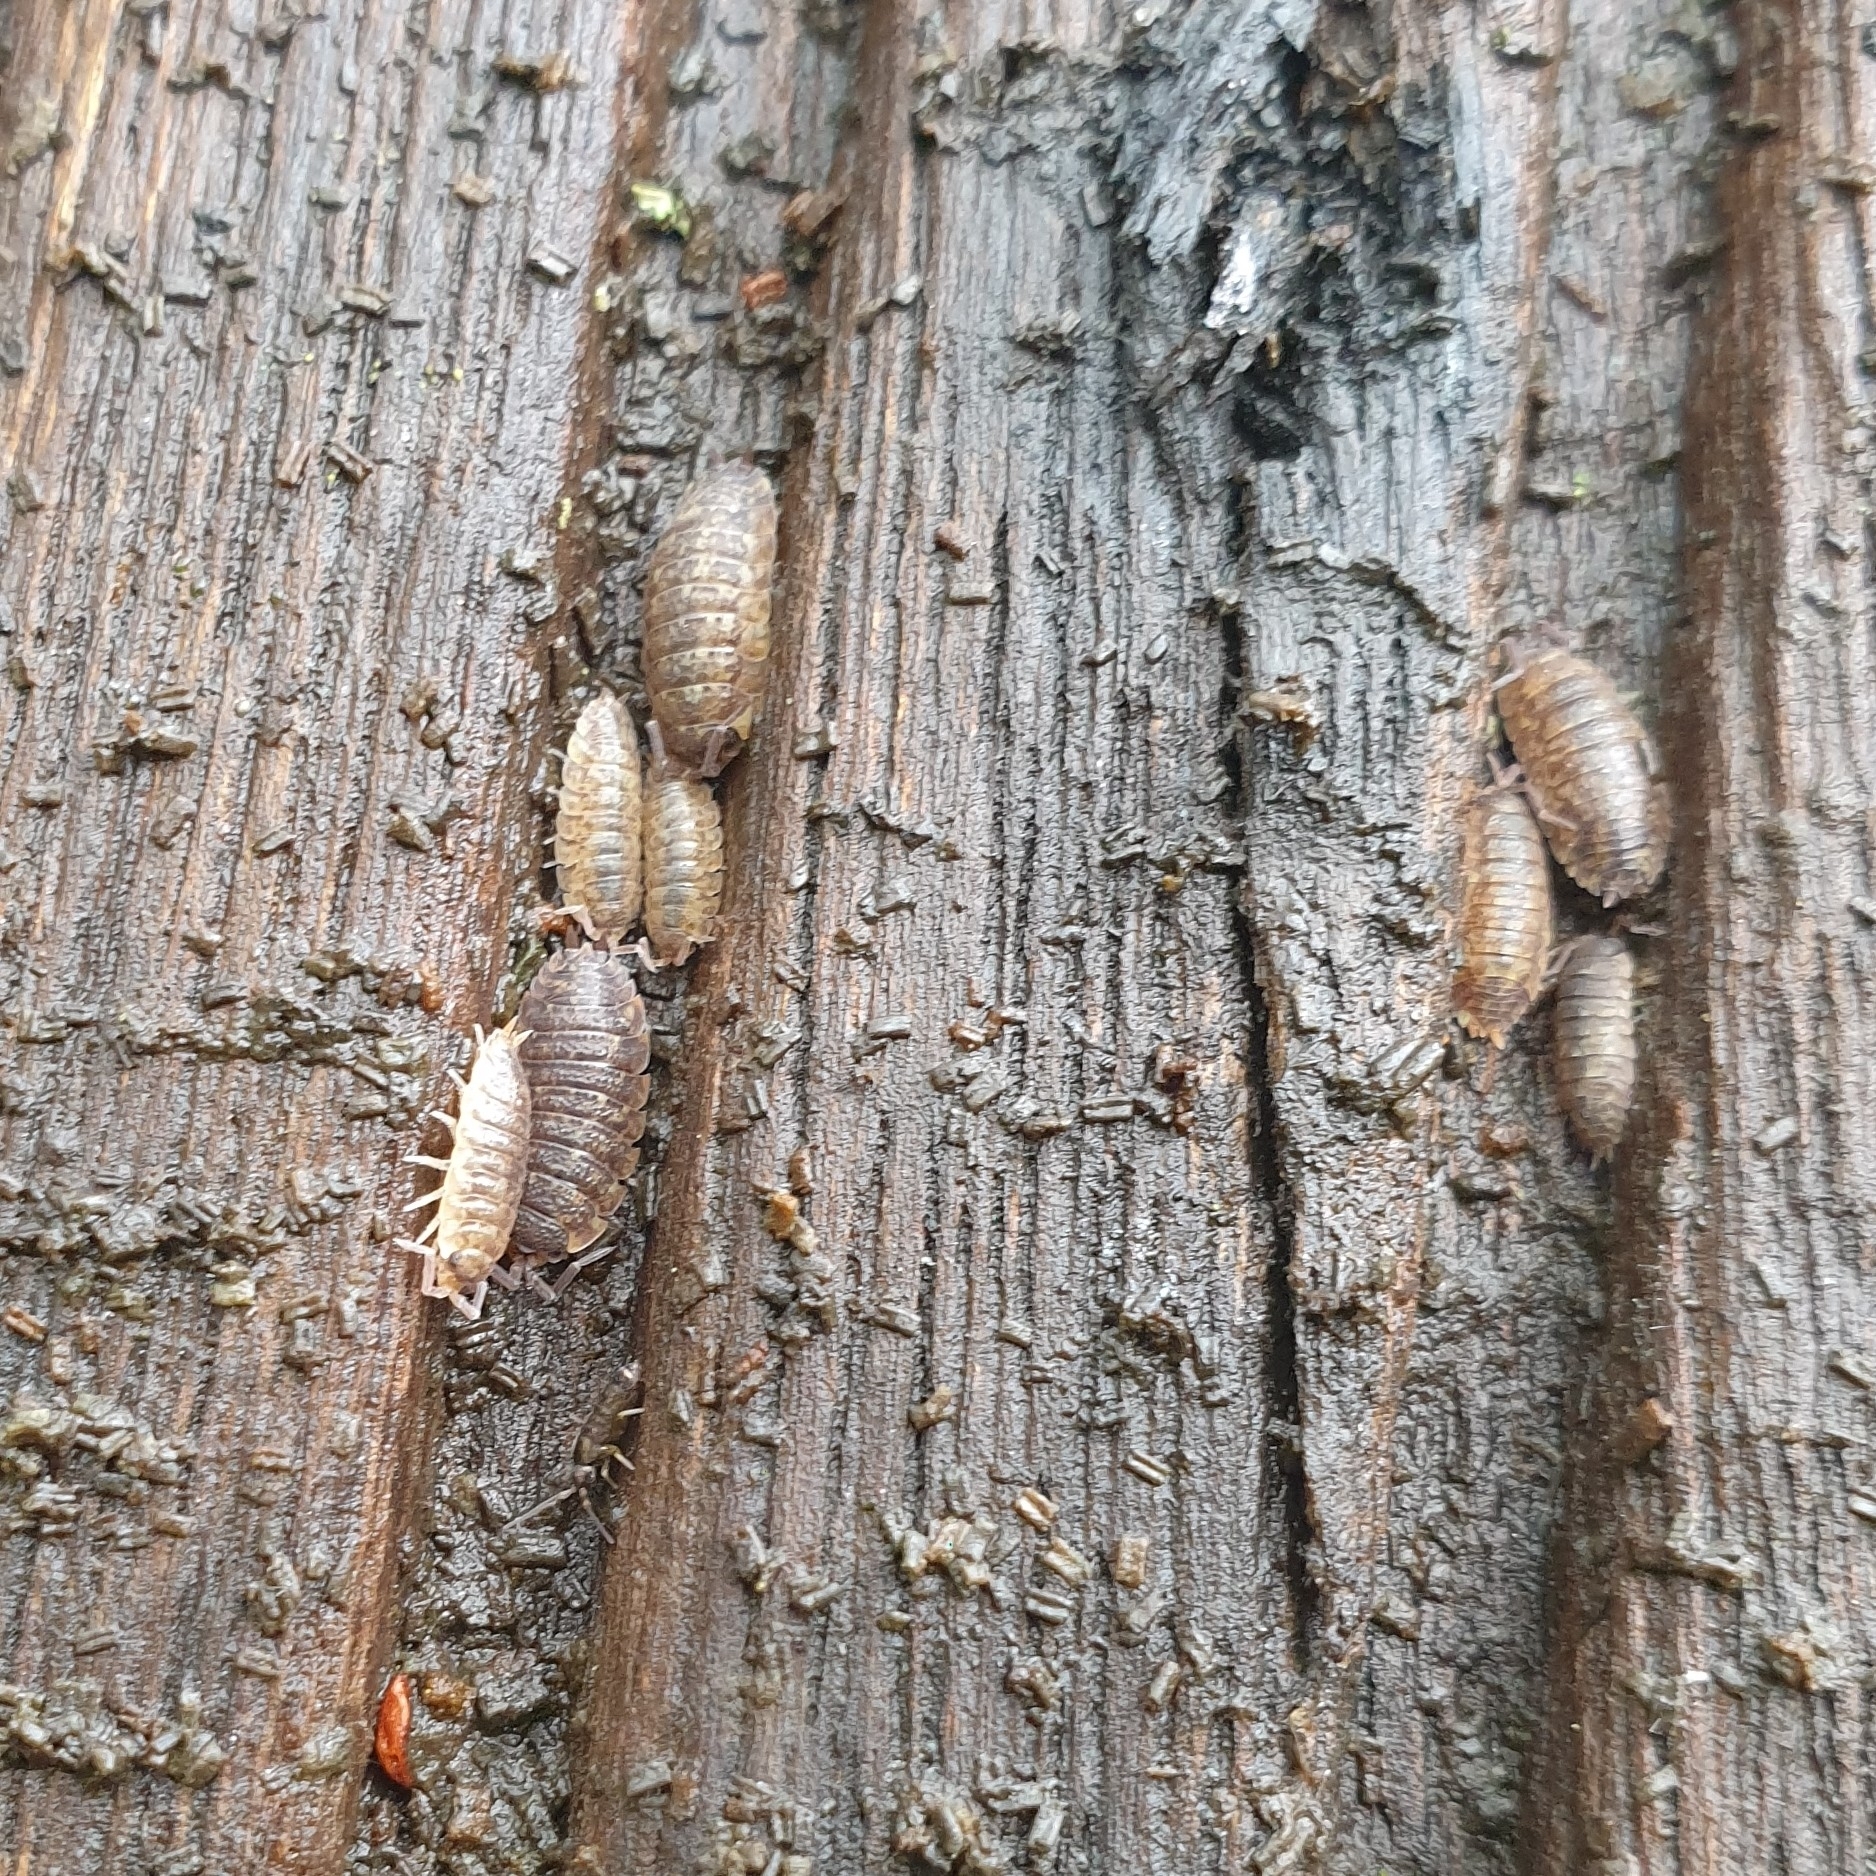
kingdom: Animalia
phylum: Arthropoda
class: Malacostraca
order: Isopoda
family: Porcellionidae
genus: Porcellio
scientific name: Porcellio scaber
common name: Common rough woodlouse
